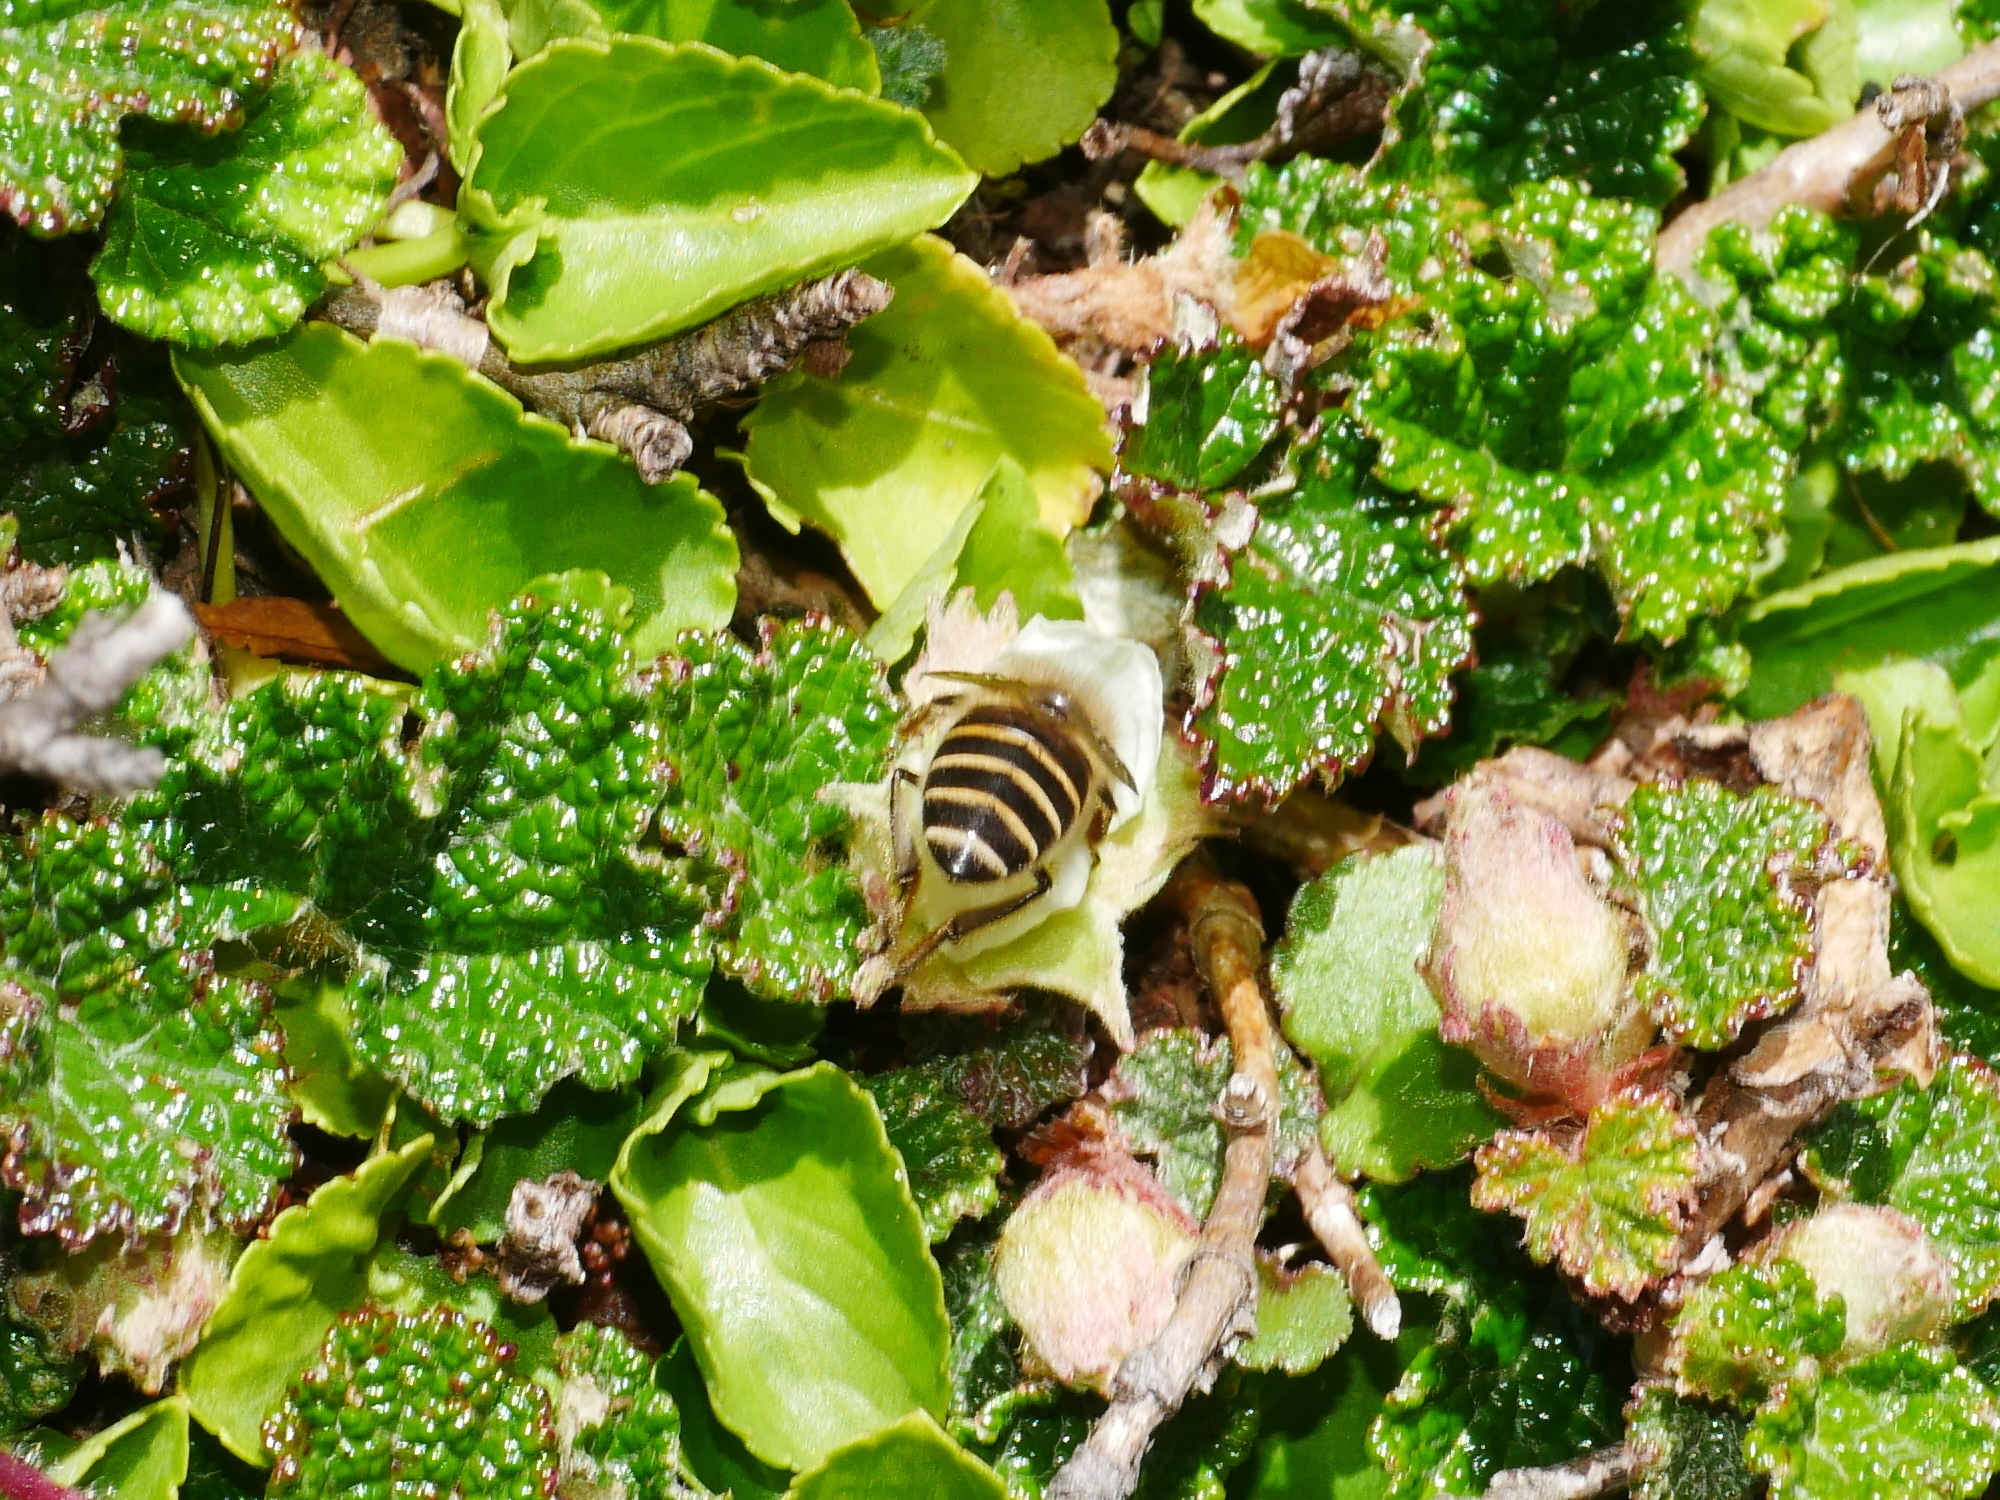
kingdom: Animalia
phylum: Arthropoda
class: Insecta
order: Hymenoptera
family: Apidae
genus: Apis
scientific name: Apis cerana
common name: Honey bee
